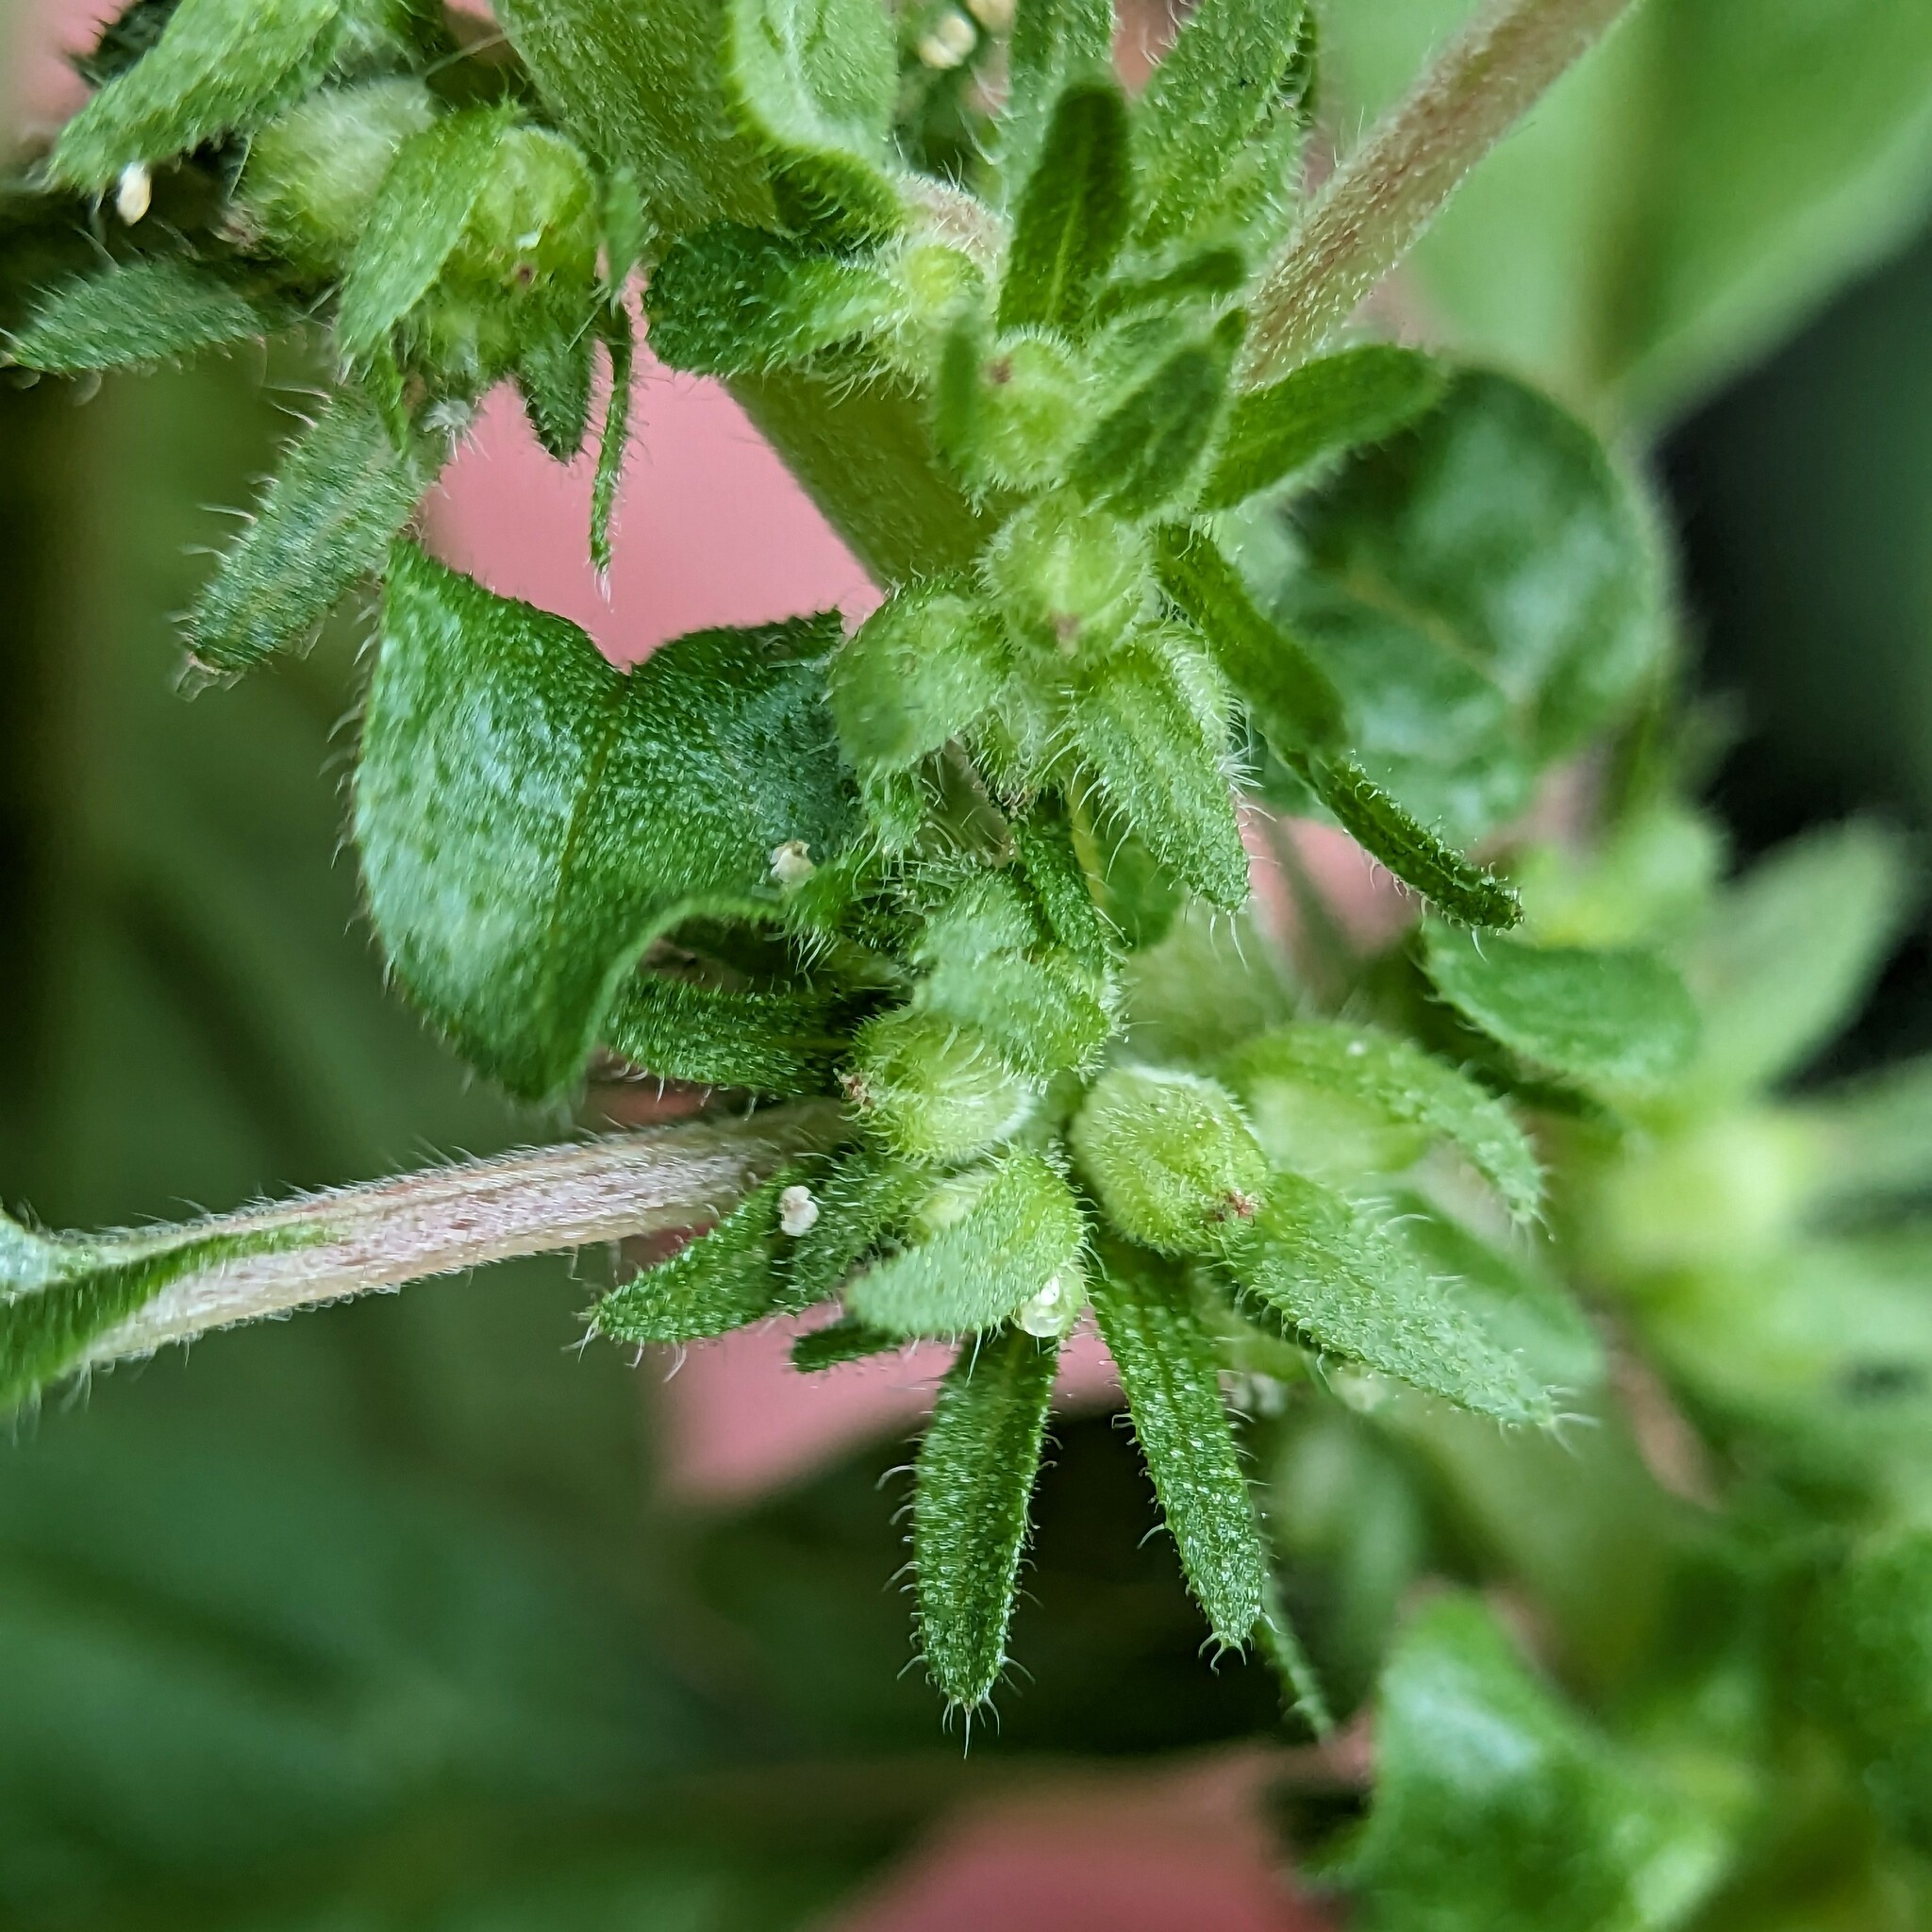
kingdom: Plantae
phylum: Tracheophyta
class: Magnoliopsida
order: Rosales
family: Urticaceae
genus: Parietaria
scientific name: Parietaria pensylvanica
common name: Pennsylvania pellitory
